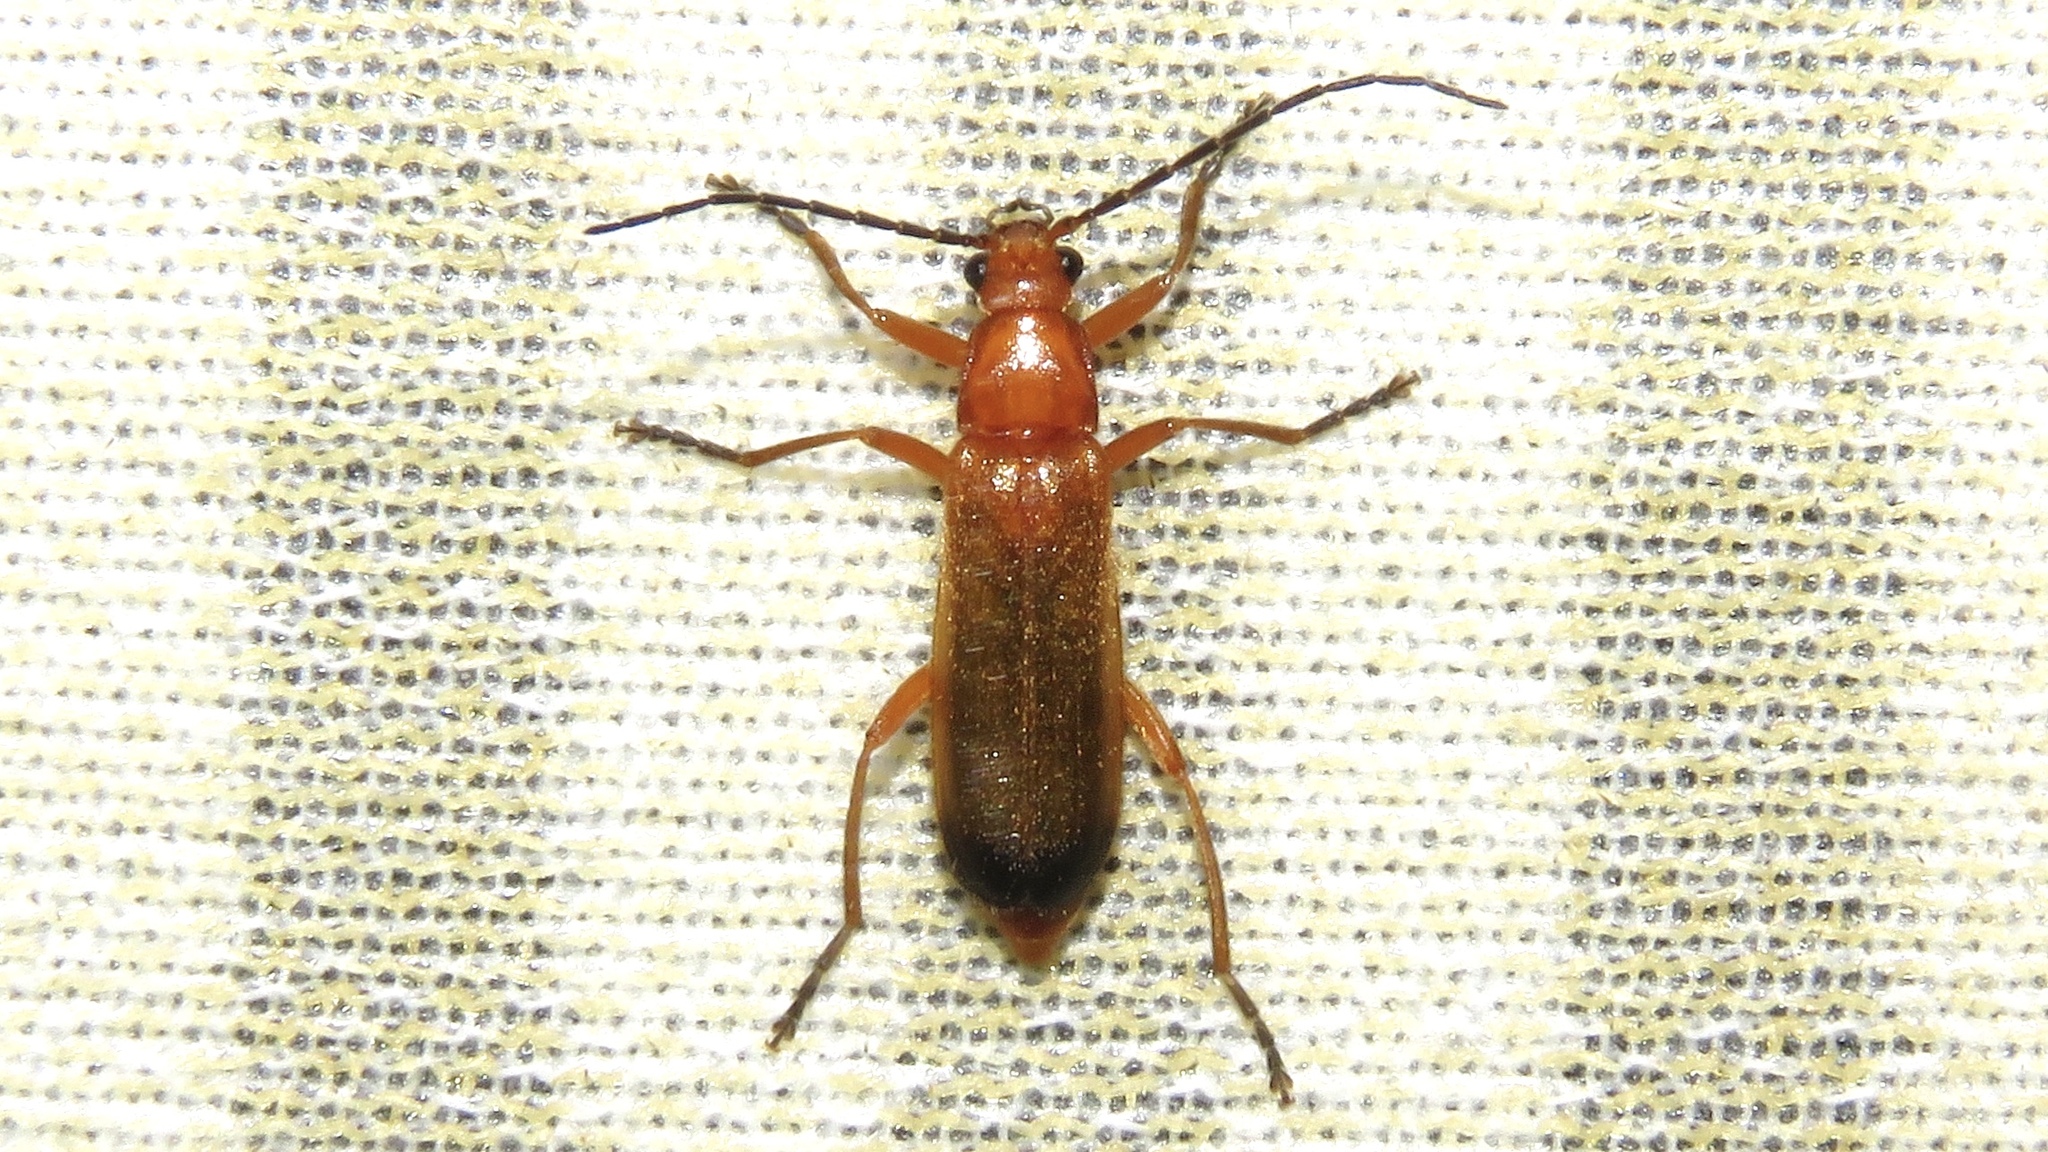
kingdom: Animalia
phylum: Arthropoda
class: Insecta
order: Coleoptera
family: Cantharidae
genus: Rhagonycha
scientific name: Rhagonycha fulva
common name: Common red soldier beetle
